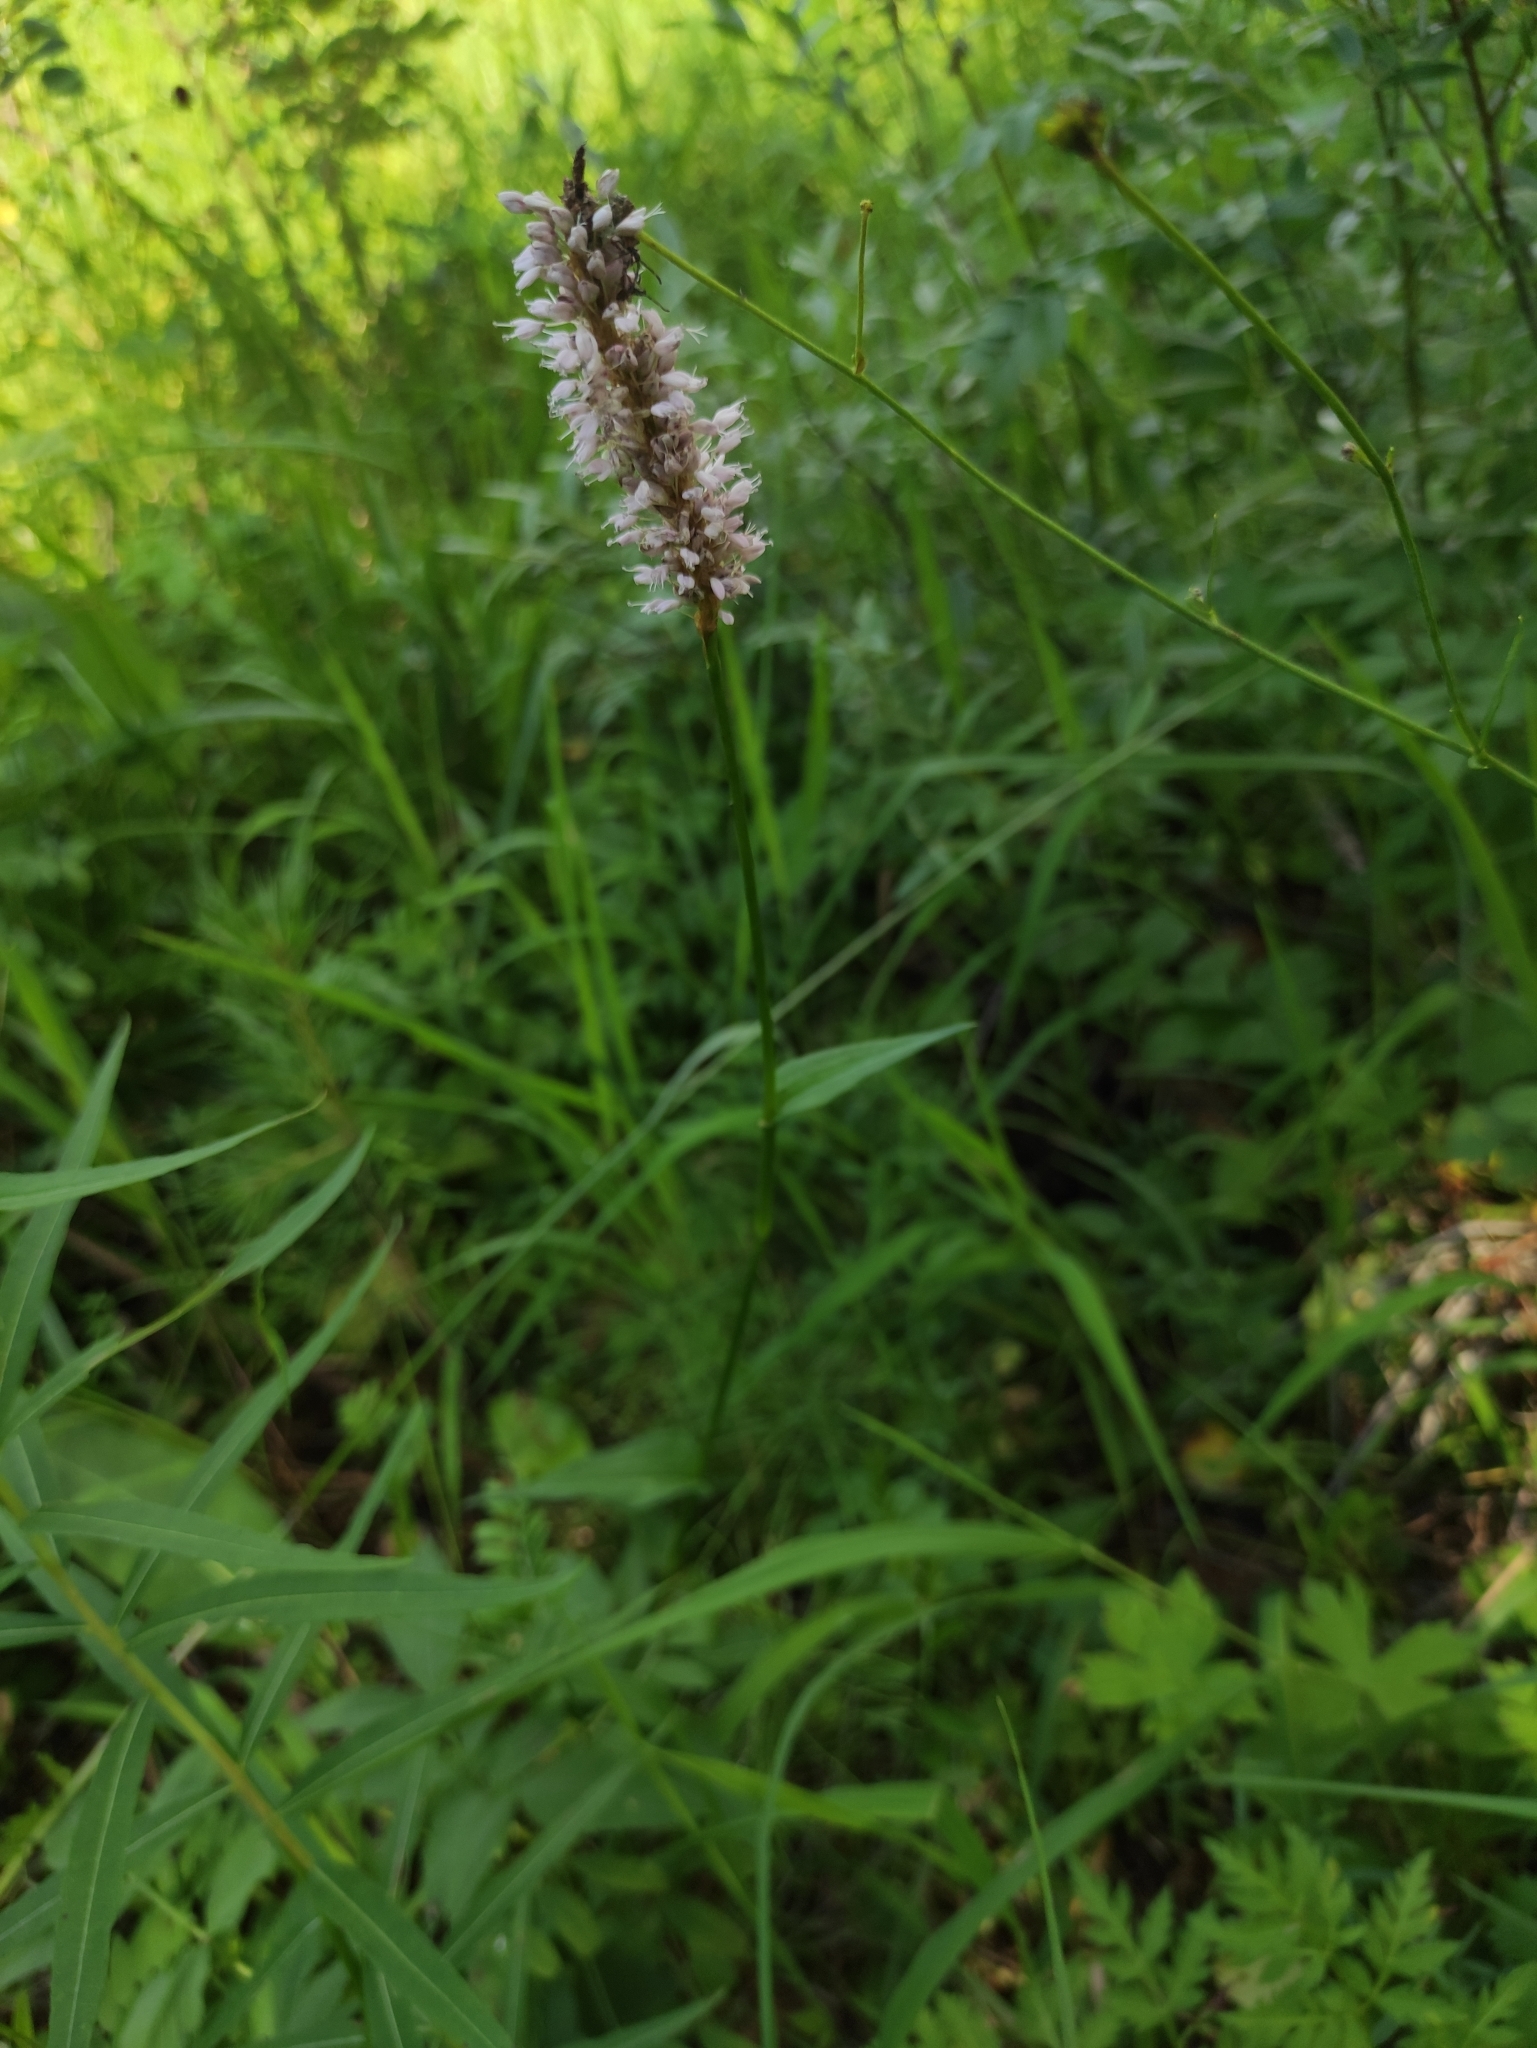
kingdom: Plantae
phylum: Tracheophyta
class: Magnoliopsida
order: Caryophyllales
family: Polygonaceae
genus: Bistorta
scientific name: Bistorta officinalis
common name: Common bistort
